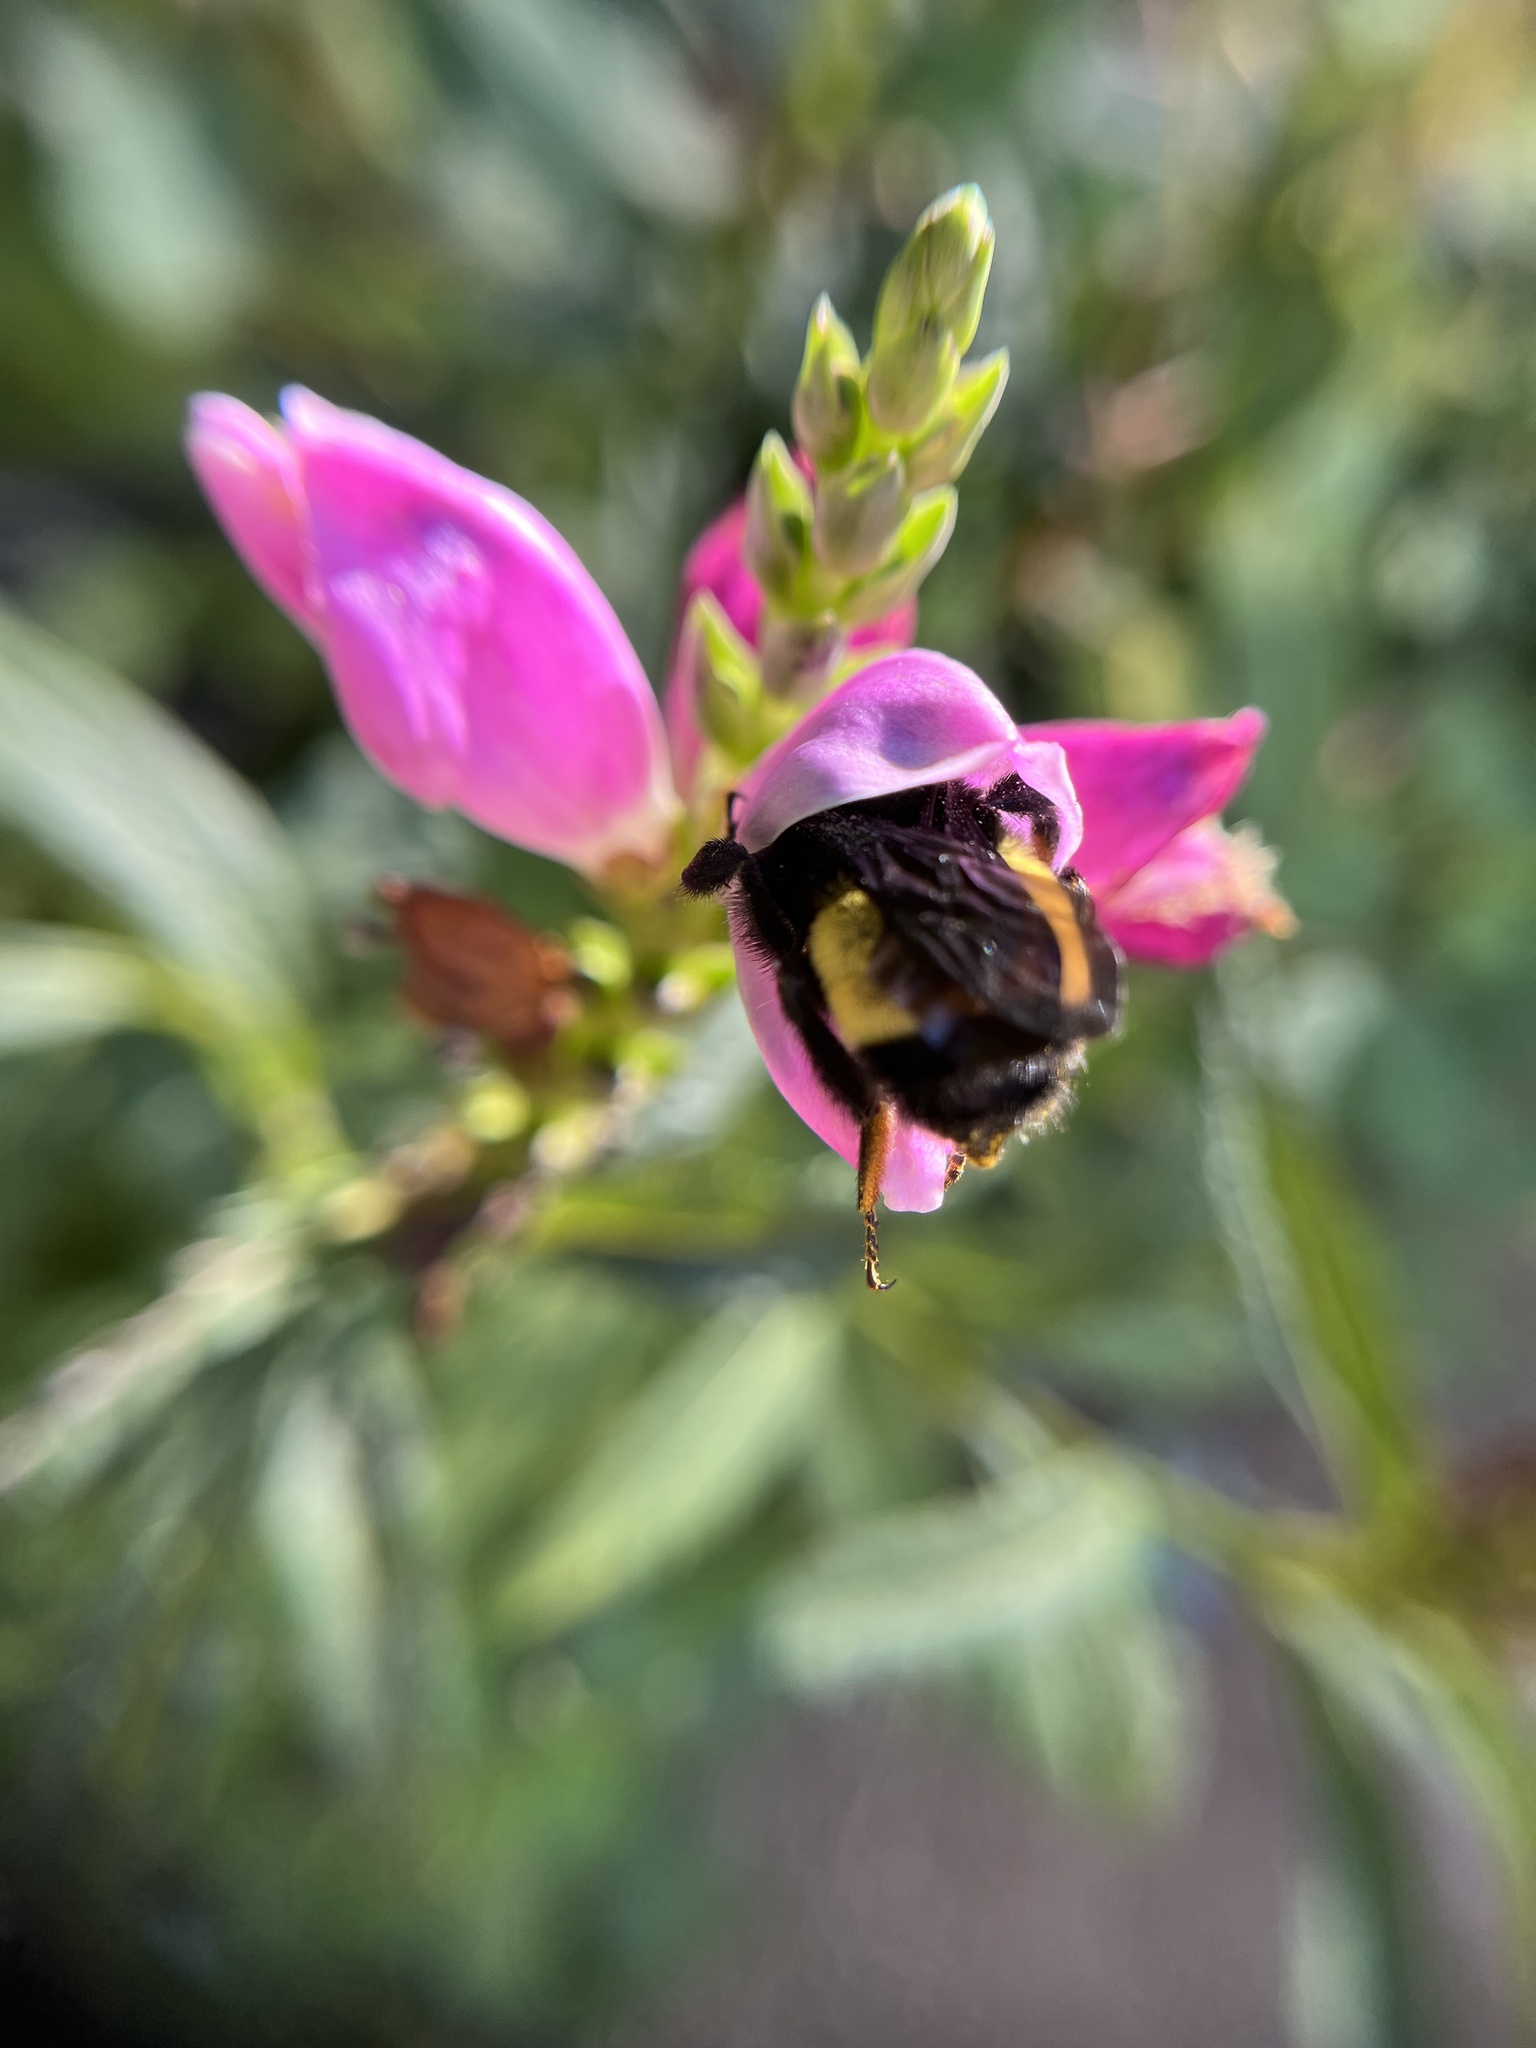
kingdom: Animalia
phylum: Arthropoda
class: Insecta
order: Hymenoptera
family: Apidae
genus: Bombus
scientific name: Bombus pensylvanicus
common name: Bumble bee
